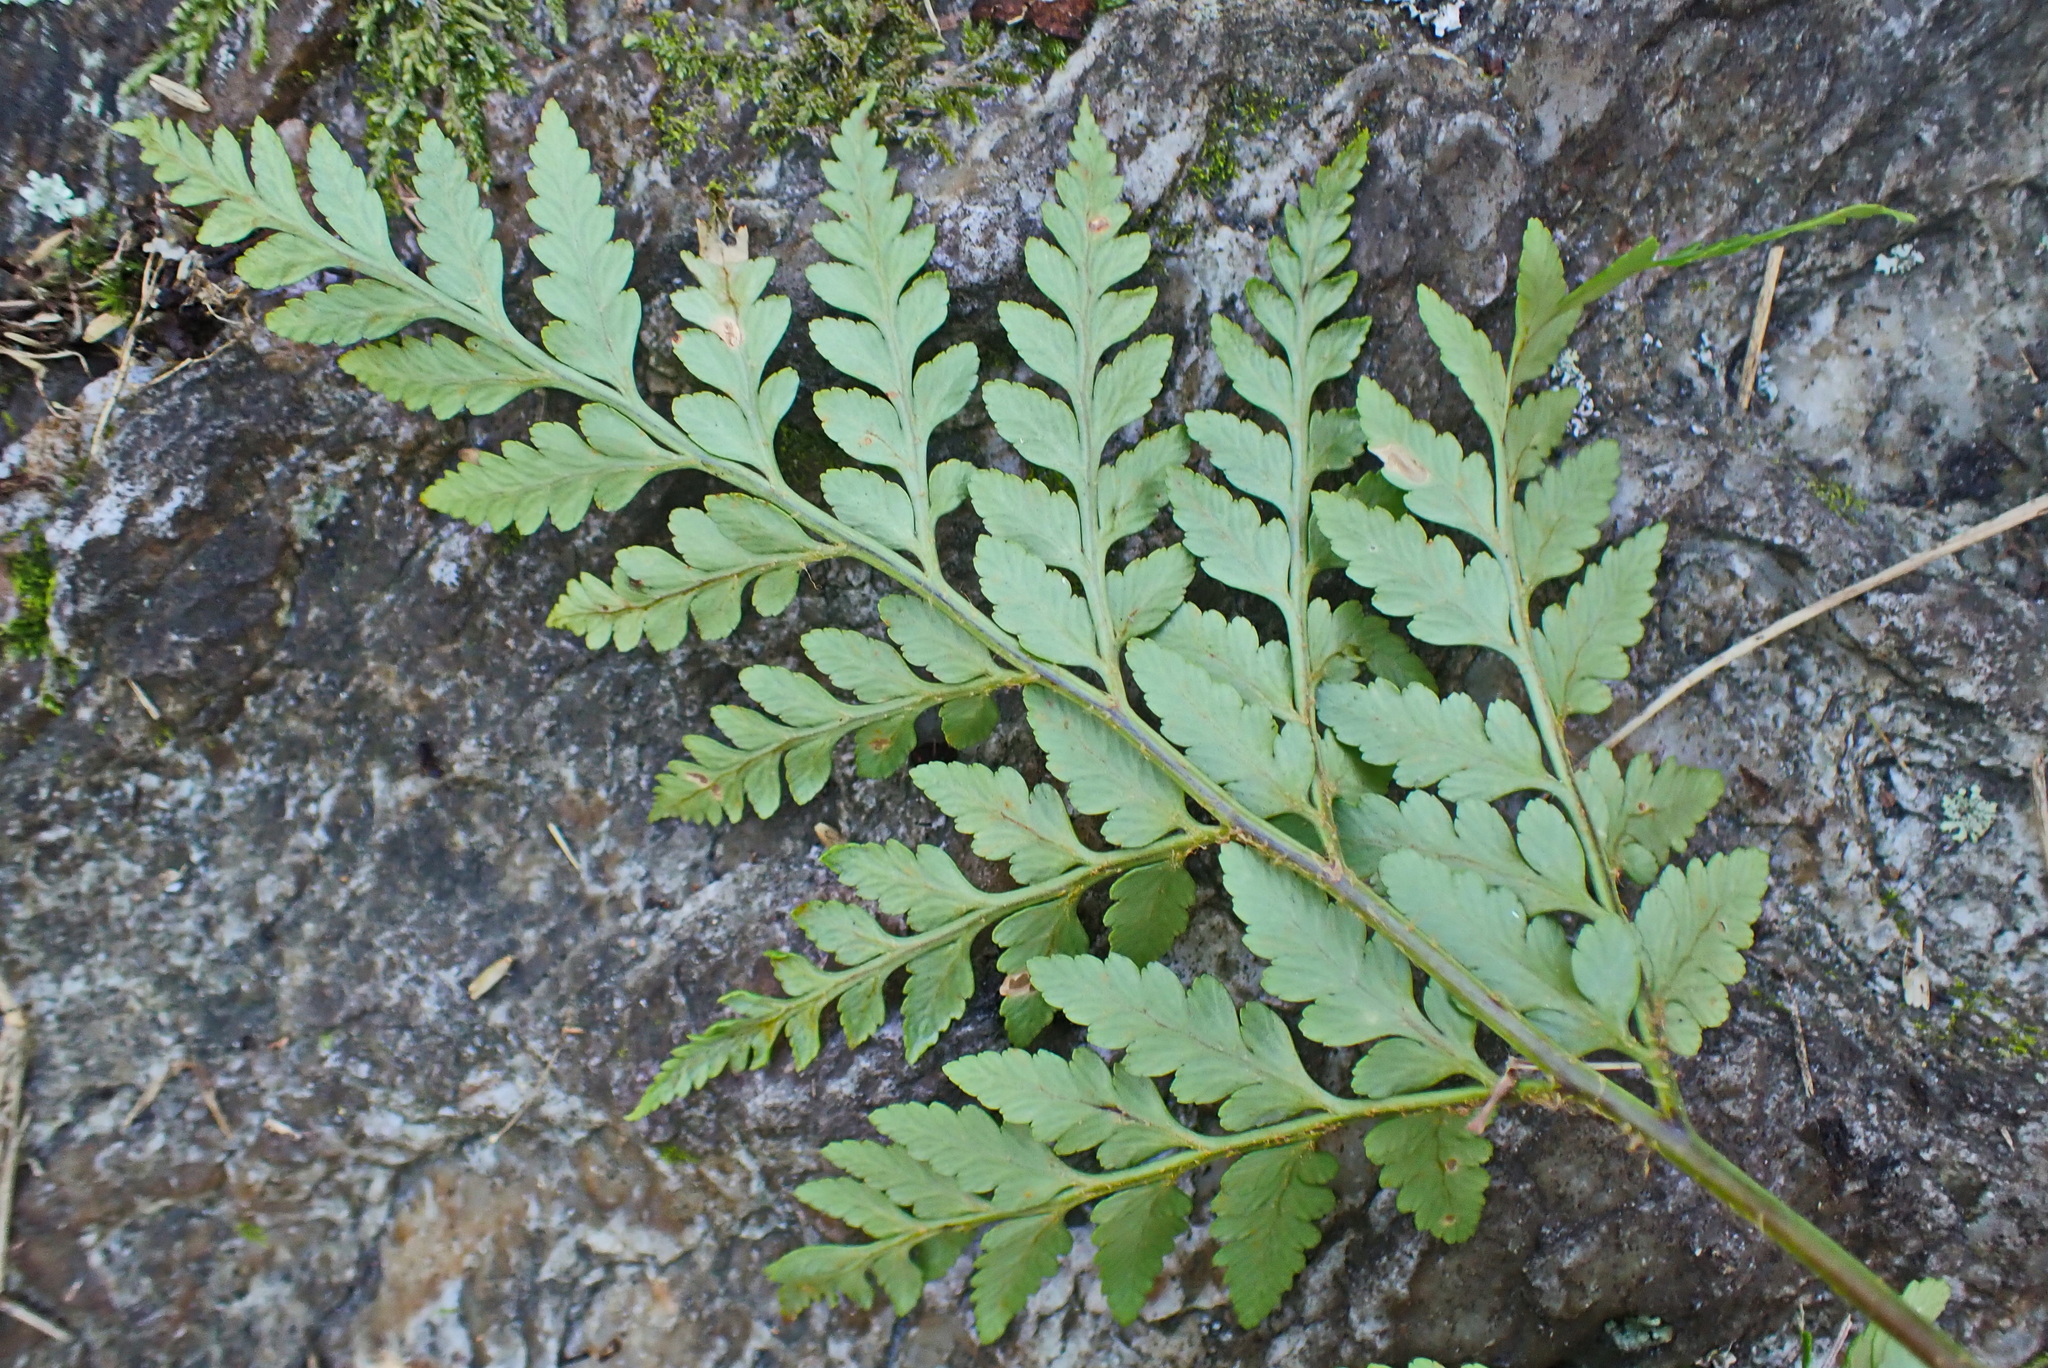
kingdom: Plantae
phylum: Tracheophyta
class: Polypodiopsida
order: Polypodiales
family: Dryopteridaceae
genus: Rumohra
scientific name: Rumohra adiantiformis
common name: Leather fern
